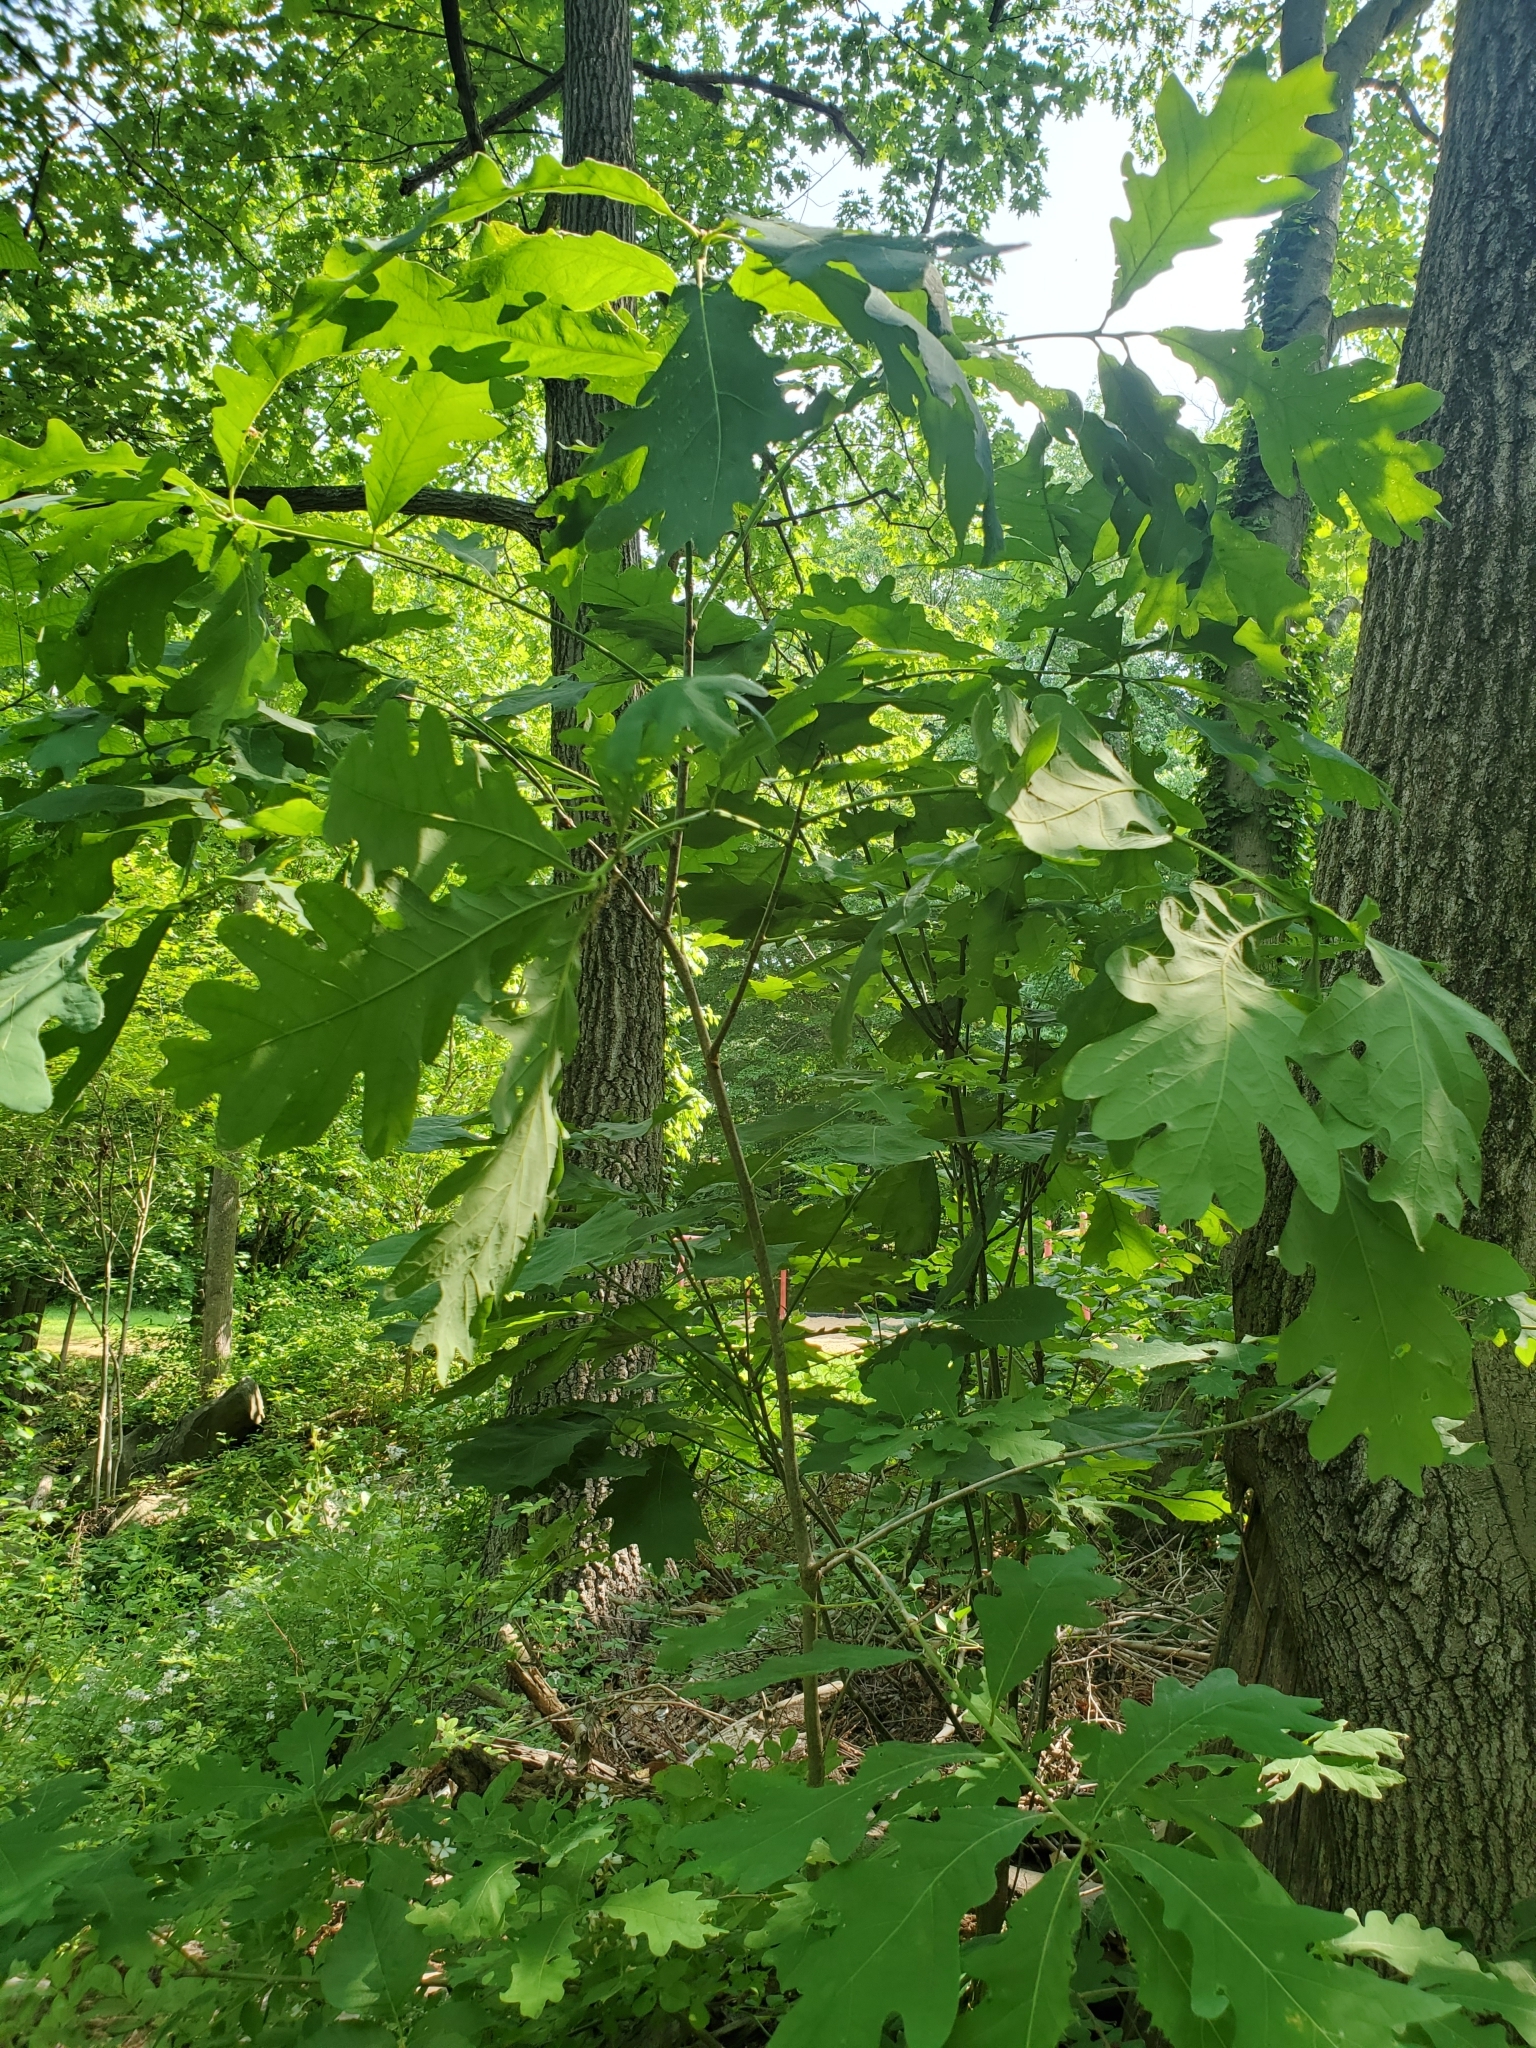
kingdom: Plantae
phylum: Tracheophyta
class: Magnoliopsida
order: Fagales
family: Fagaceae
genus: Quercus
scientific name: Quercus alba
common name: White oak
